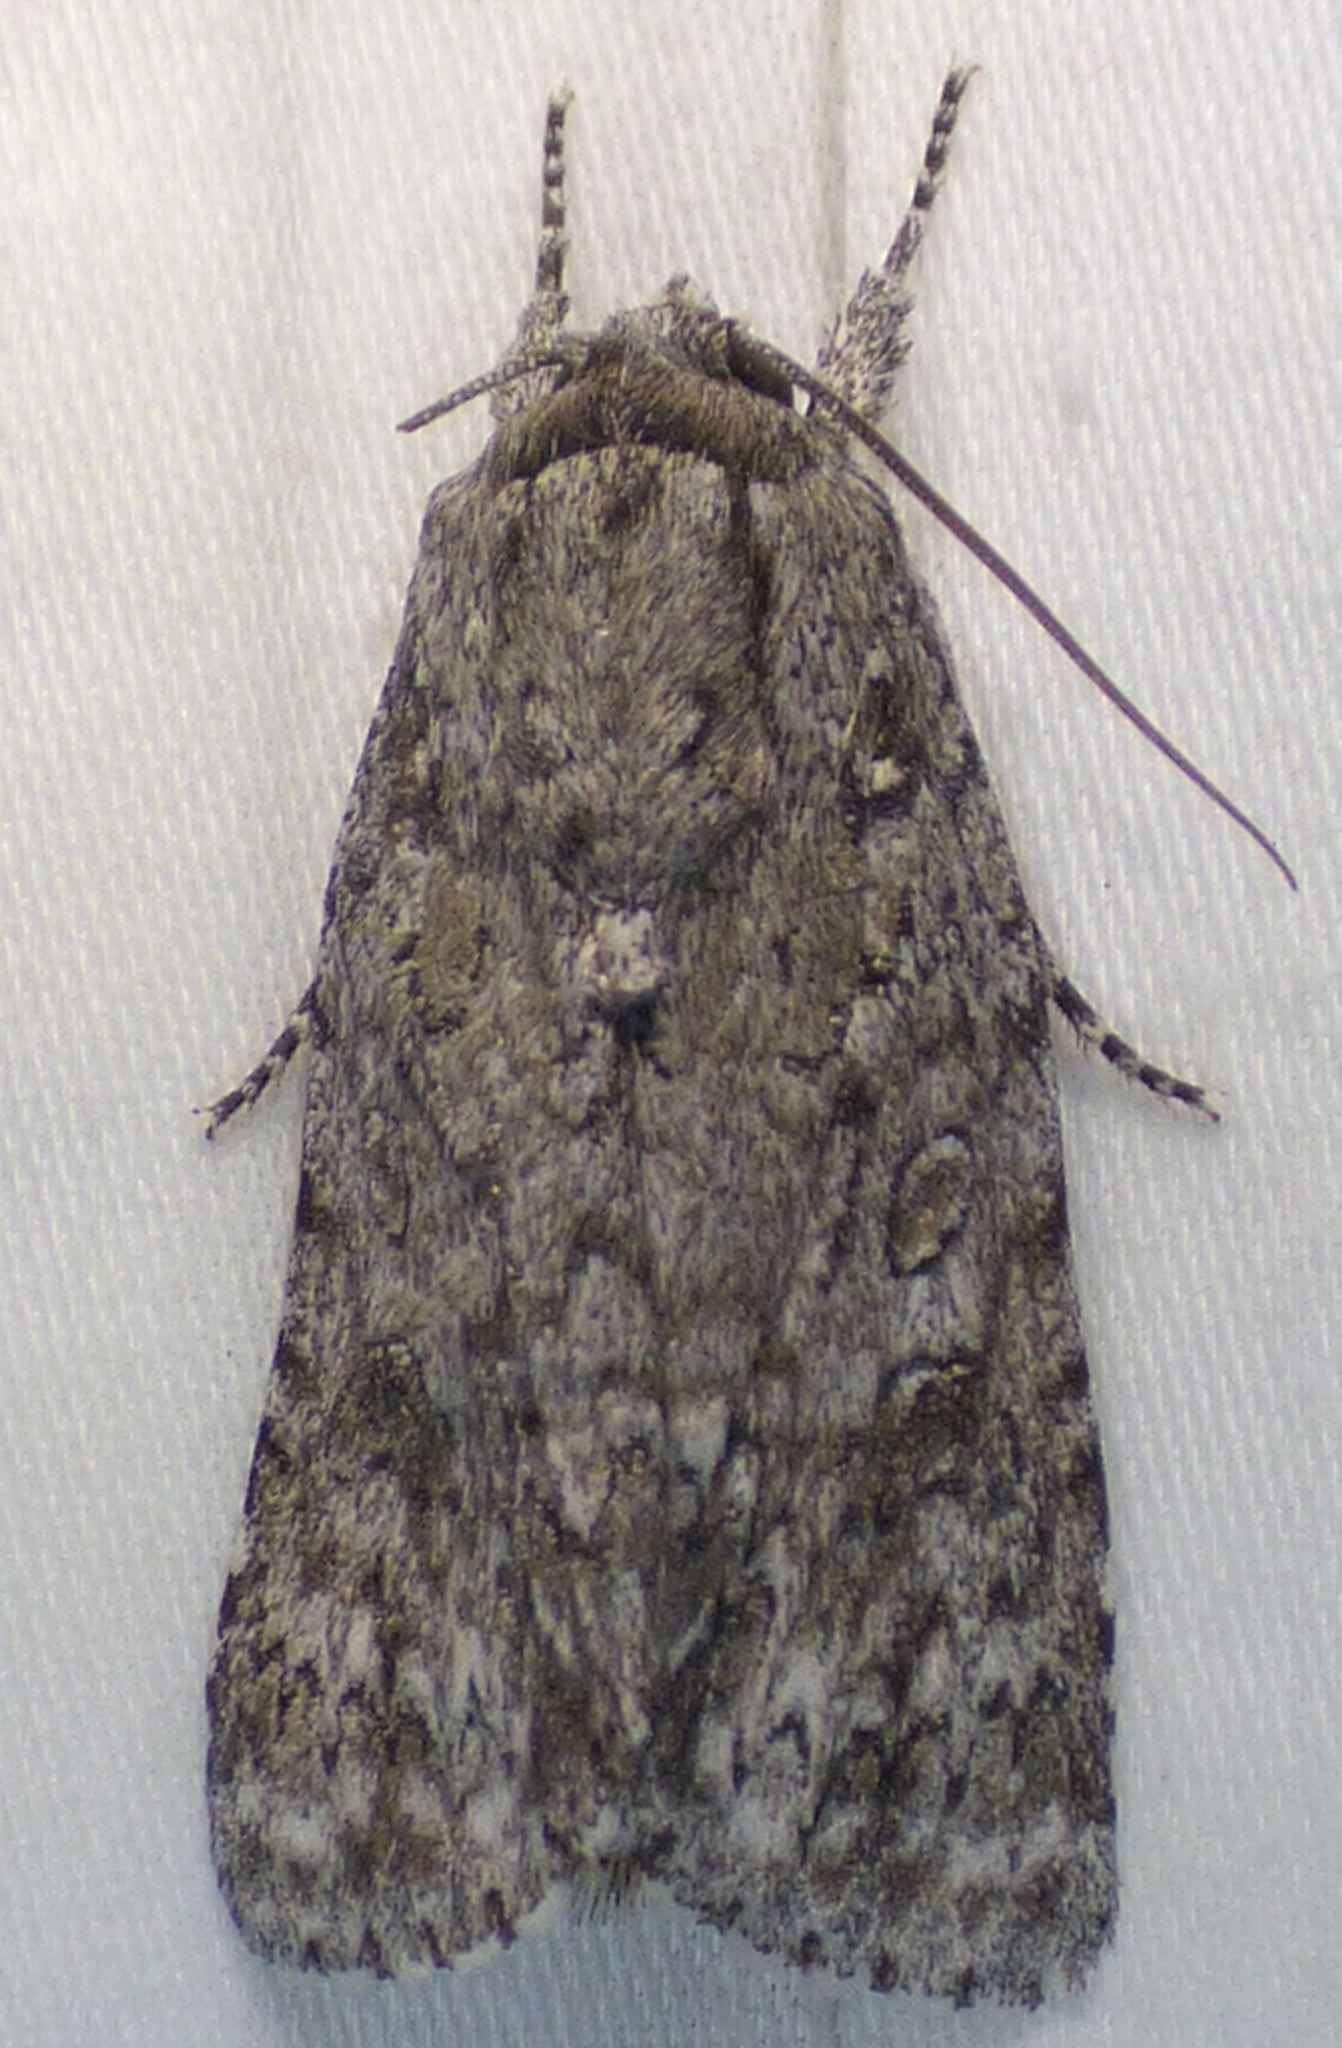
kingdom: Animalia
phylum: Arthropoda
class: Insecta
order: Lepidoptera
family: Noctuidae
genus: Acronicta
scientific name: Acronicta impleta
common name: Powdered dagger
